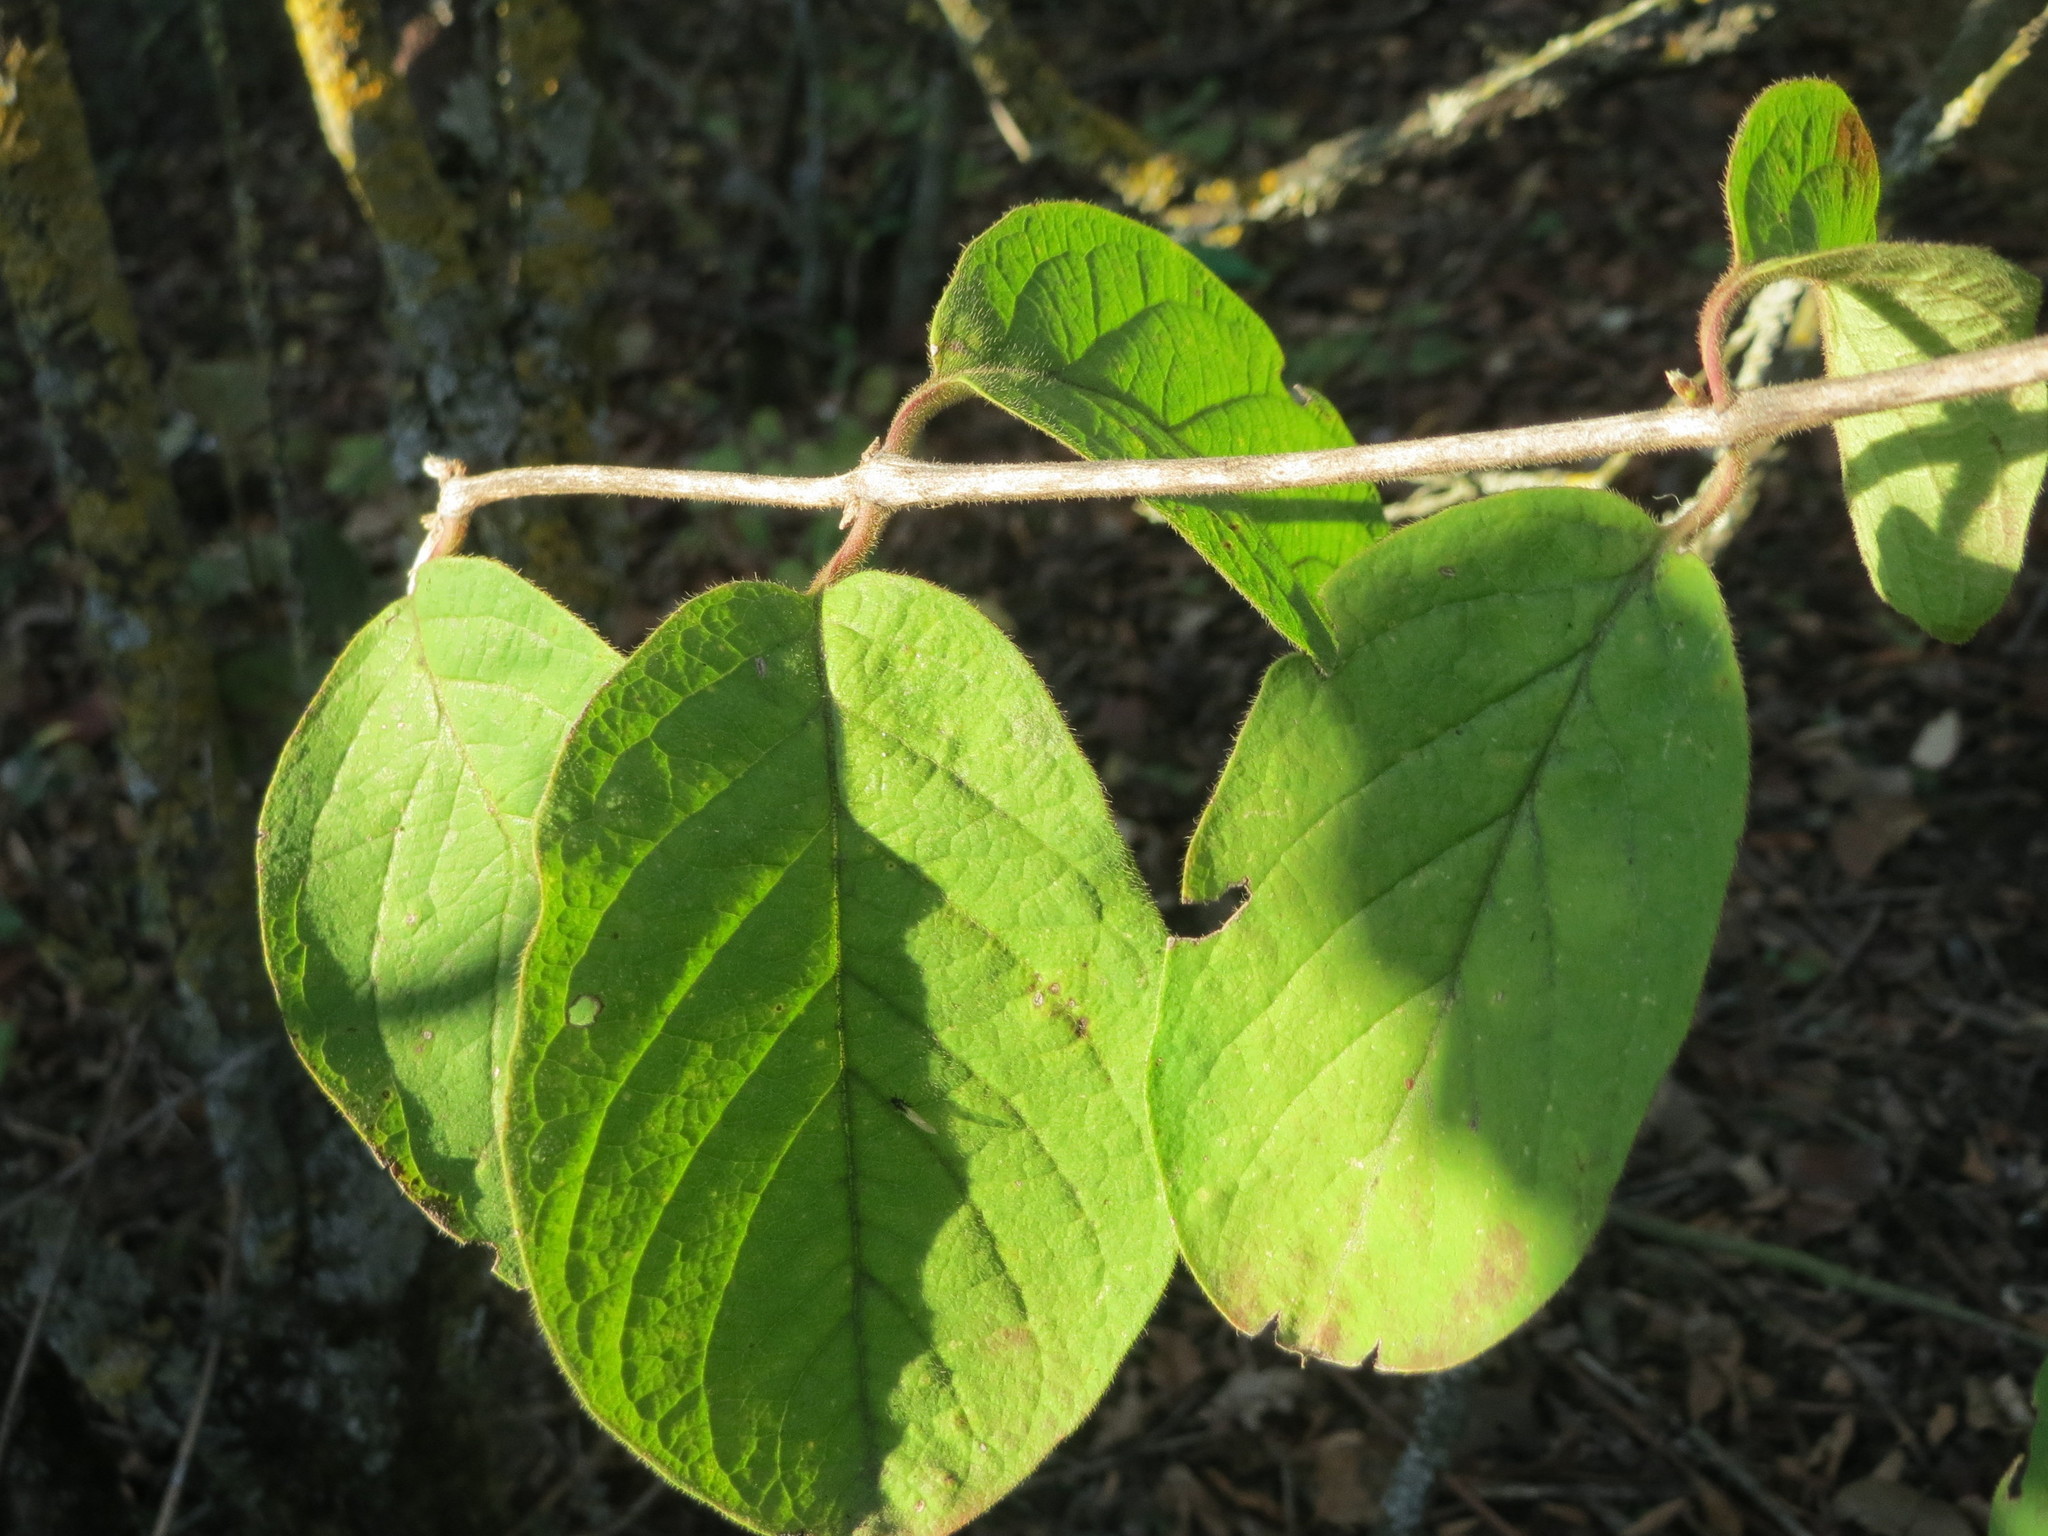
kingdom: Plantae
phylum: Tracheophyta
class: Magnoliopsida
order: Dipsacales
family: Caprifoliaceae
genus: Lonicera
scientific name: Lonicera xylosteum
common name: Fly honeysuckle
